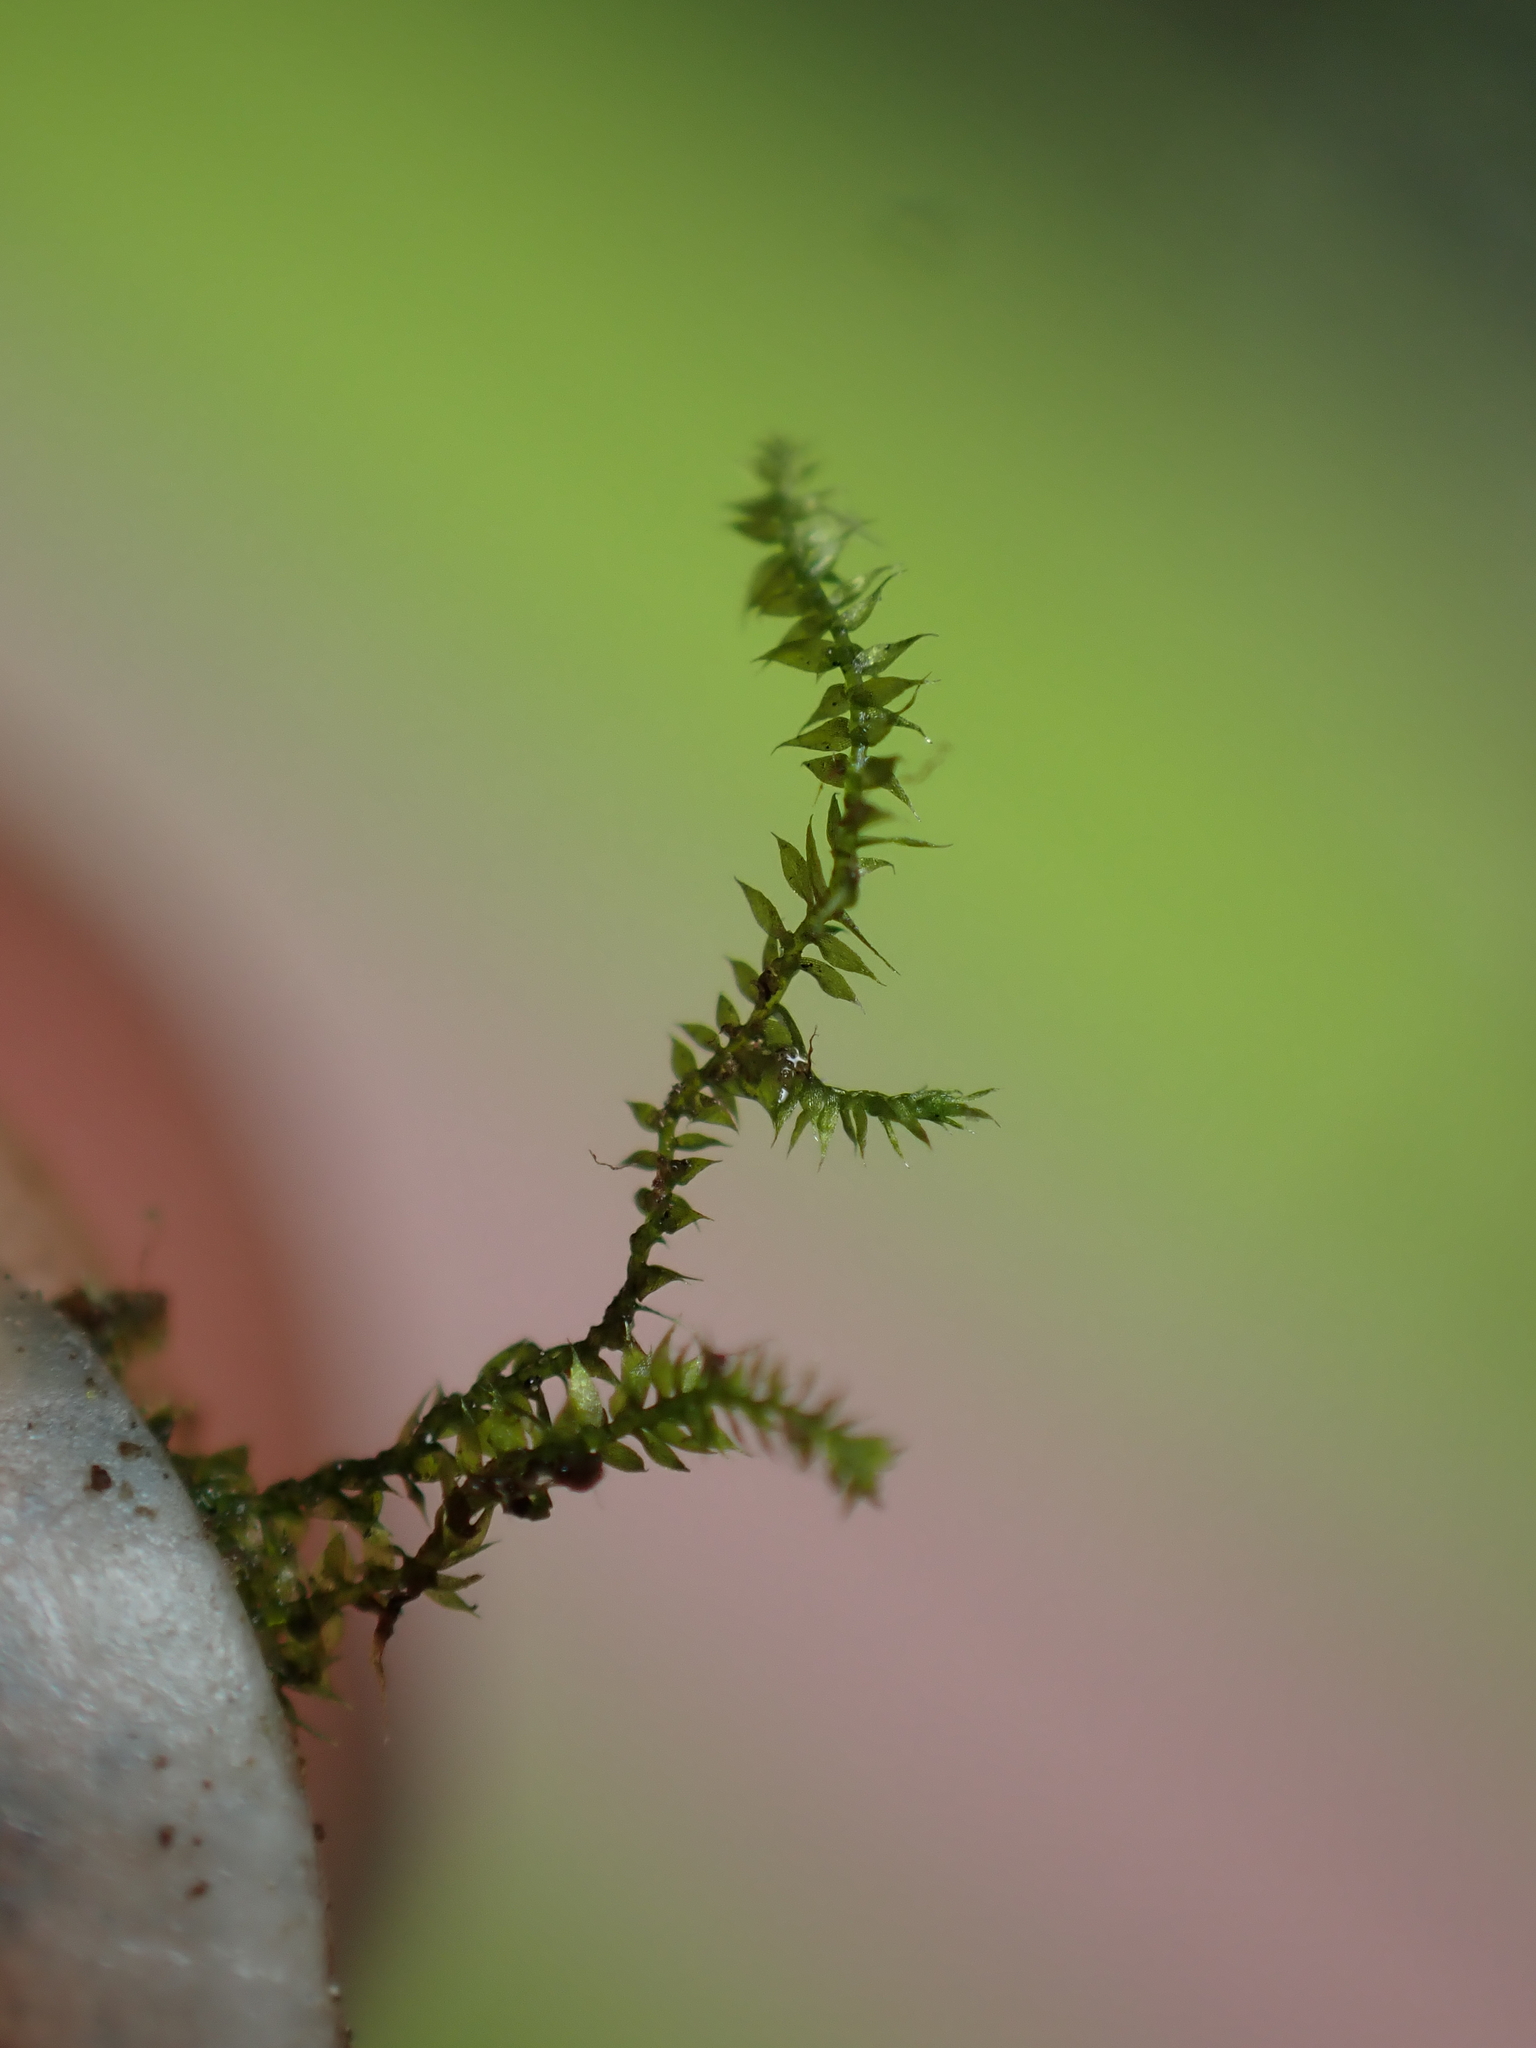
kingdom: Plantae
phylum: Bryophyta
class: Bryopsida
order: Hypnales
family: Fabroniaceae
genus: Fabronia
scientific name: Fabronia australis
